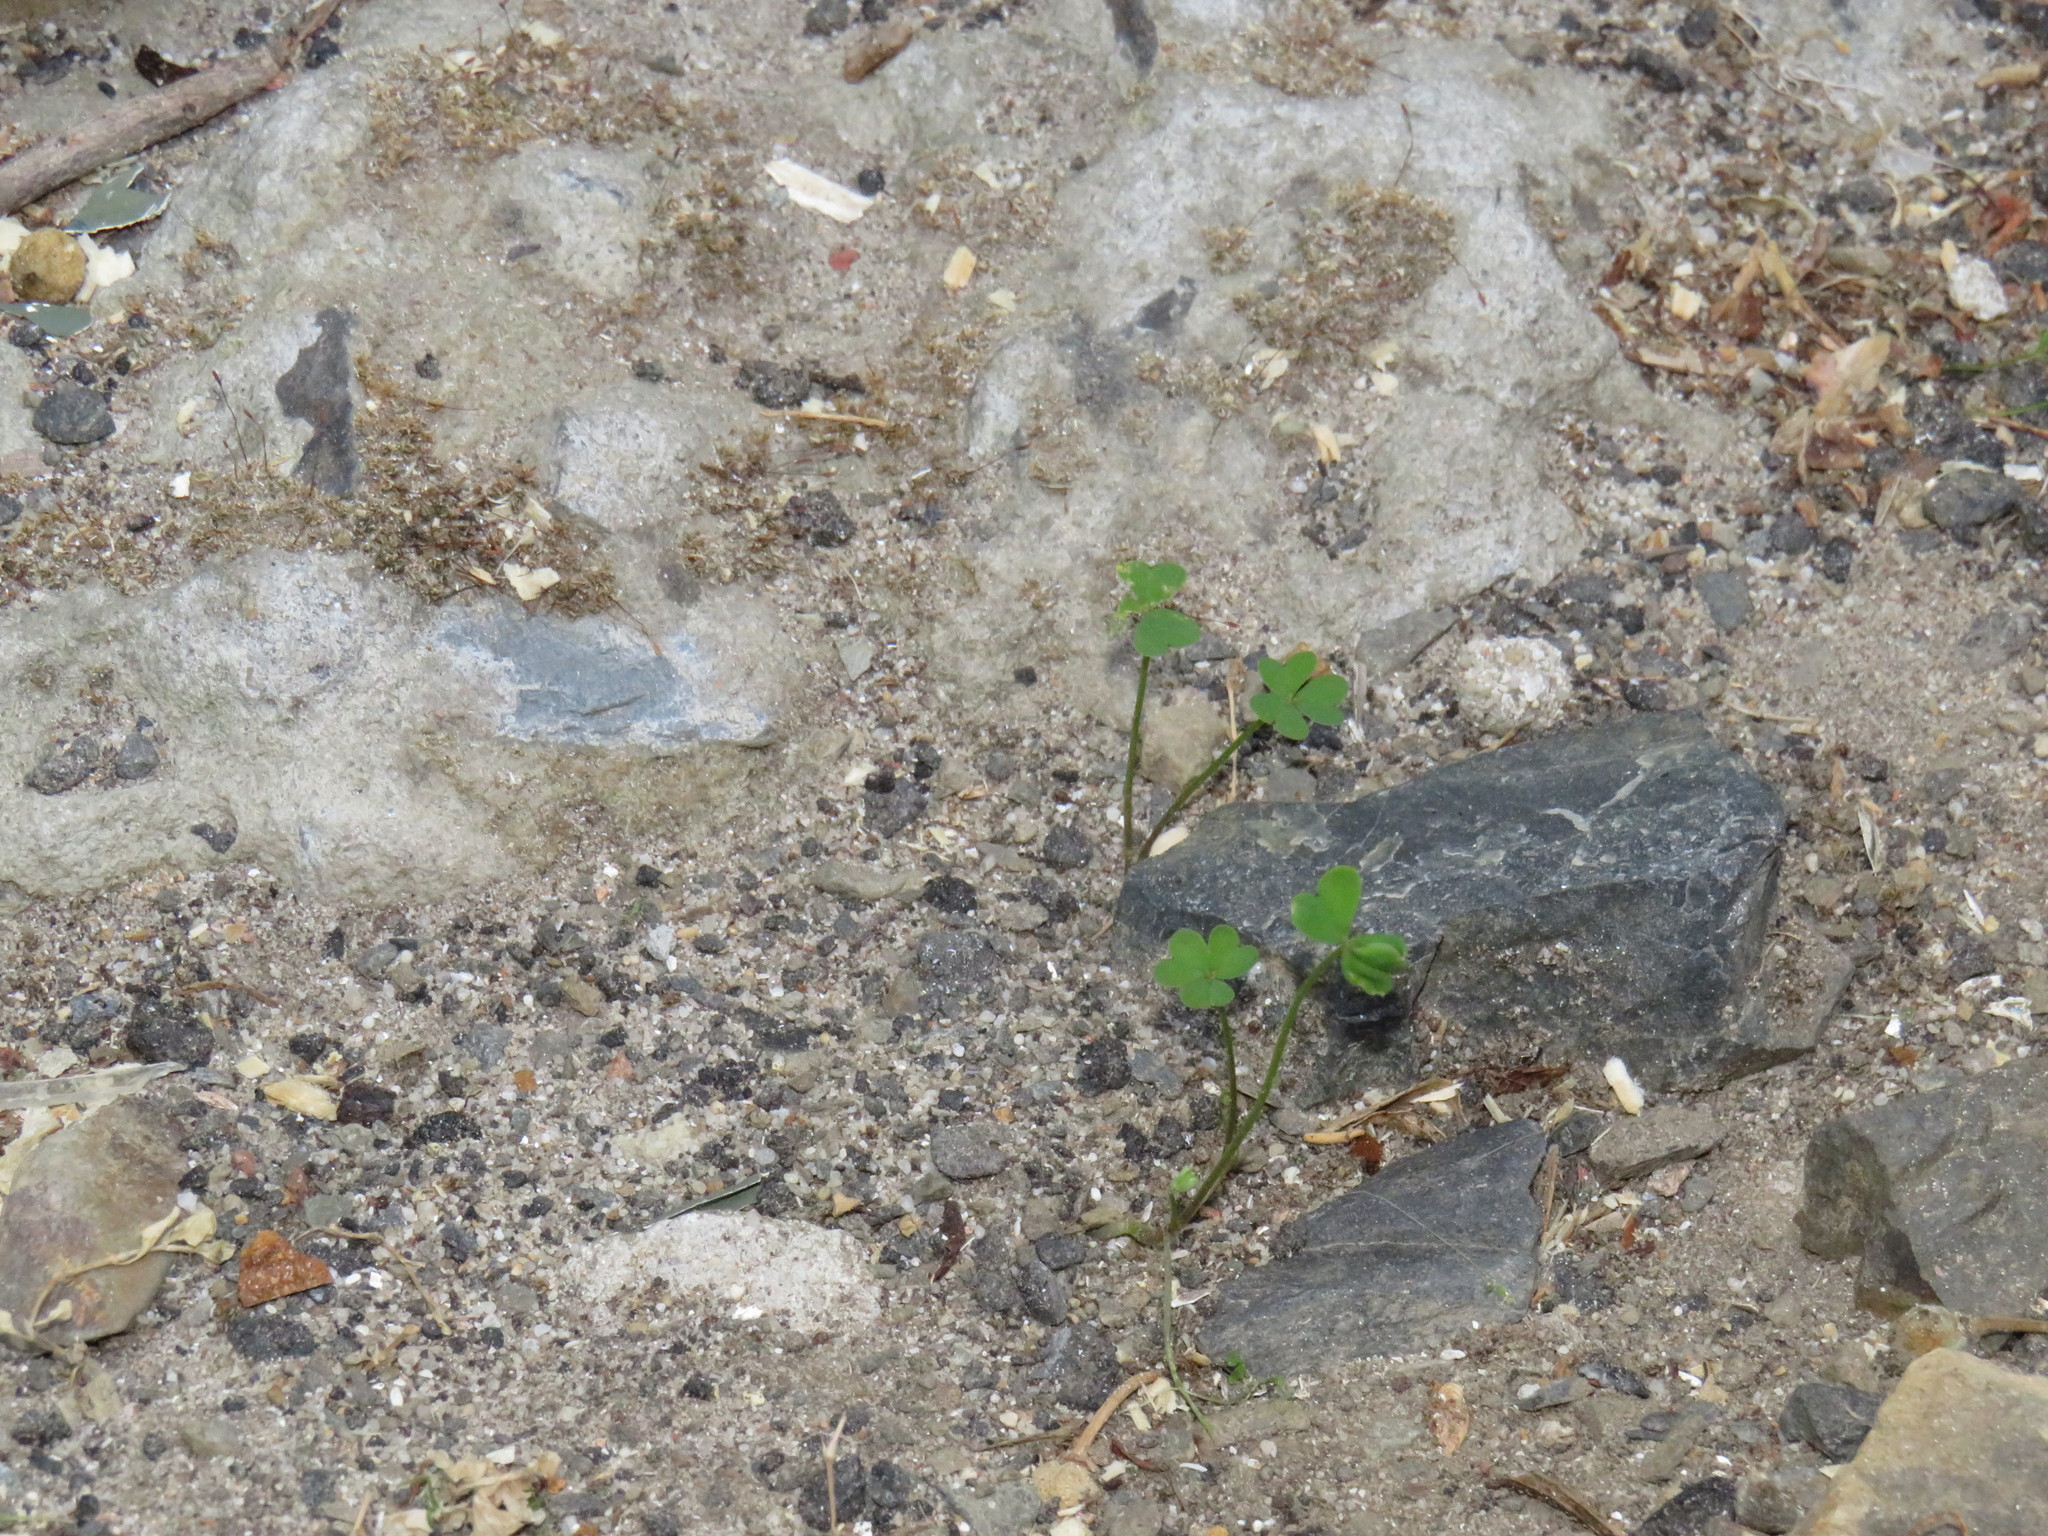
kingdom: Plantae
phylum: Tracheophyta
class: Magnoliopsida
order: Oxalidales
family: Oxalidaceae
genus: Oxalis
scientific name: Oxalis pes-caprae
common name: Bermuda-buttercup
